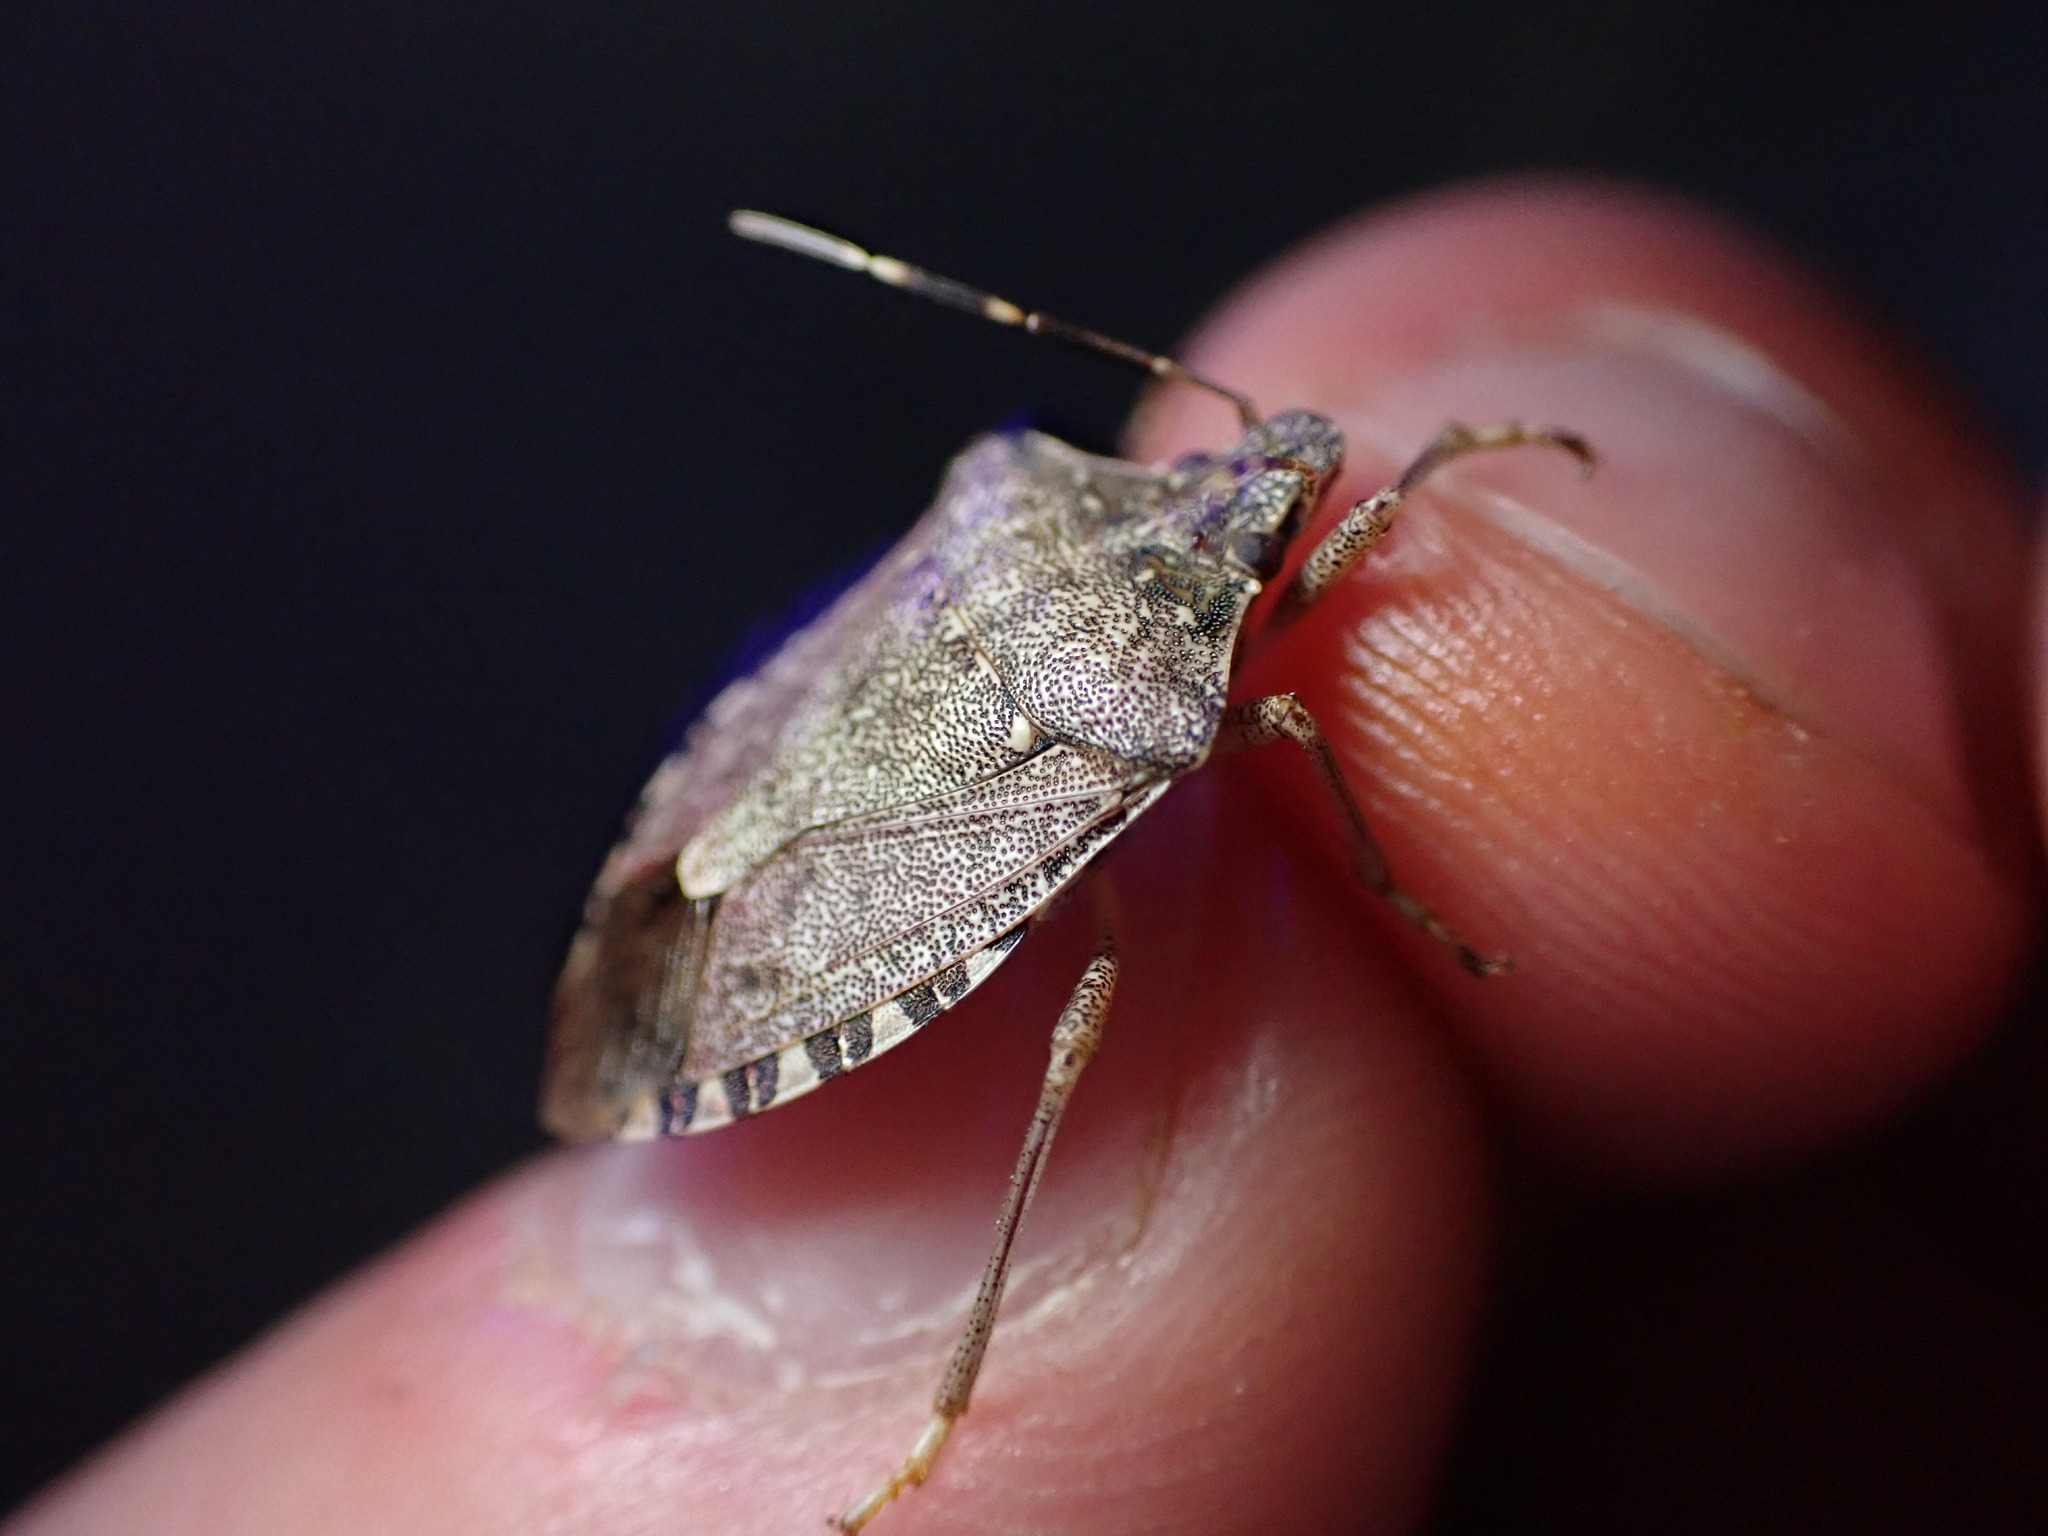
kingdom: Animalia
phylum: Arthropoda
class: Insecta
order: Hemiptera
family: Pentatomidae
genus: Halyomorpha
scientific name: Halyomorpha halys
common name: Brown marmorated stink bug
